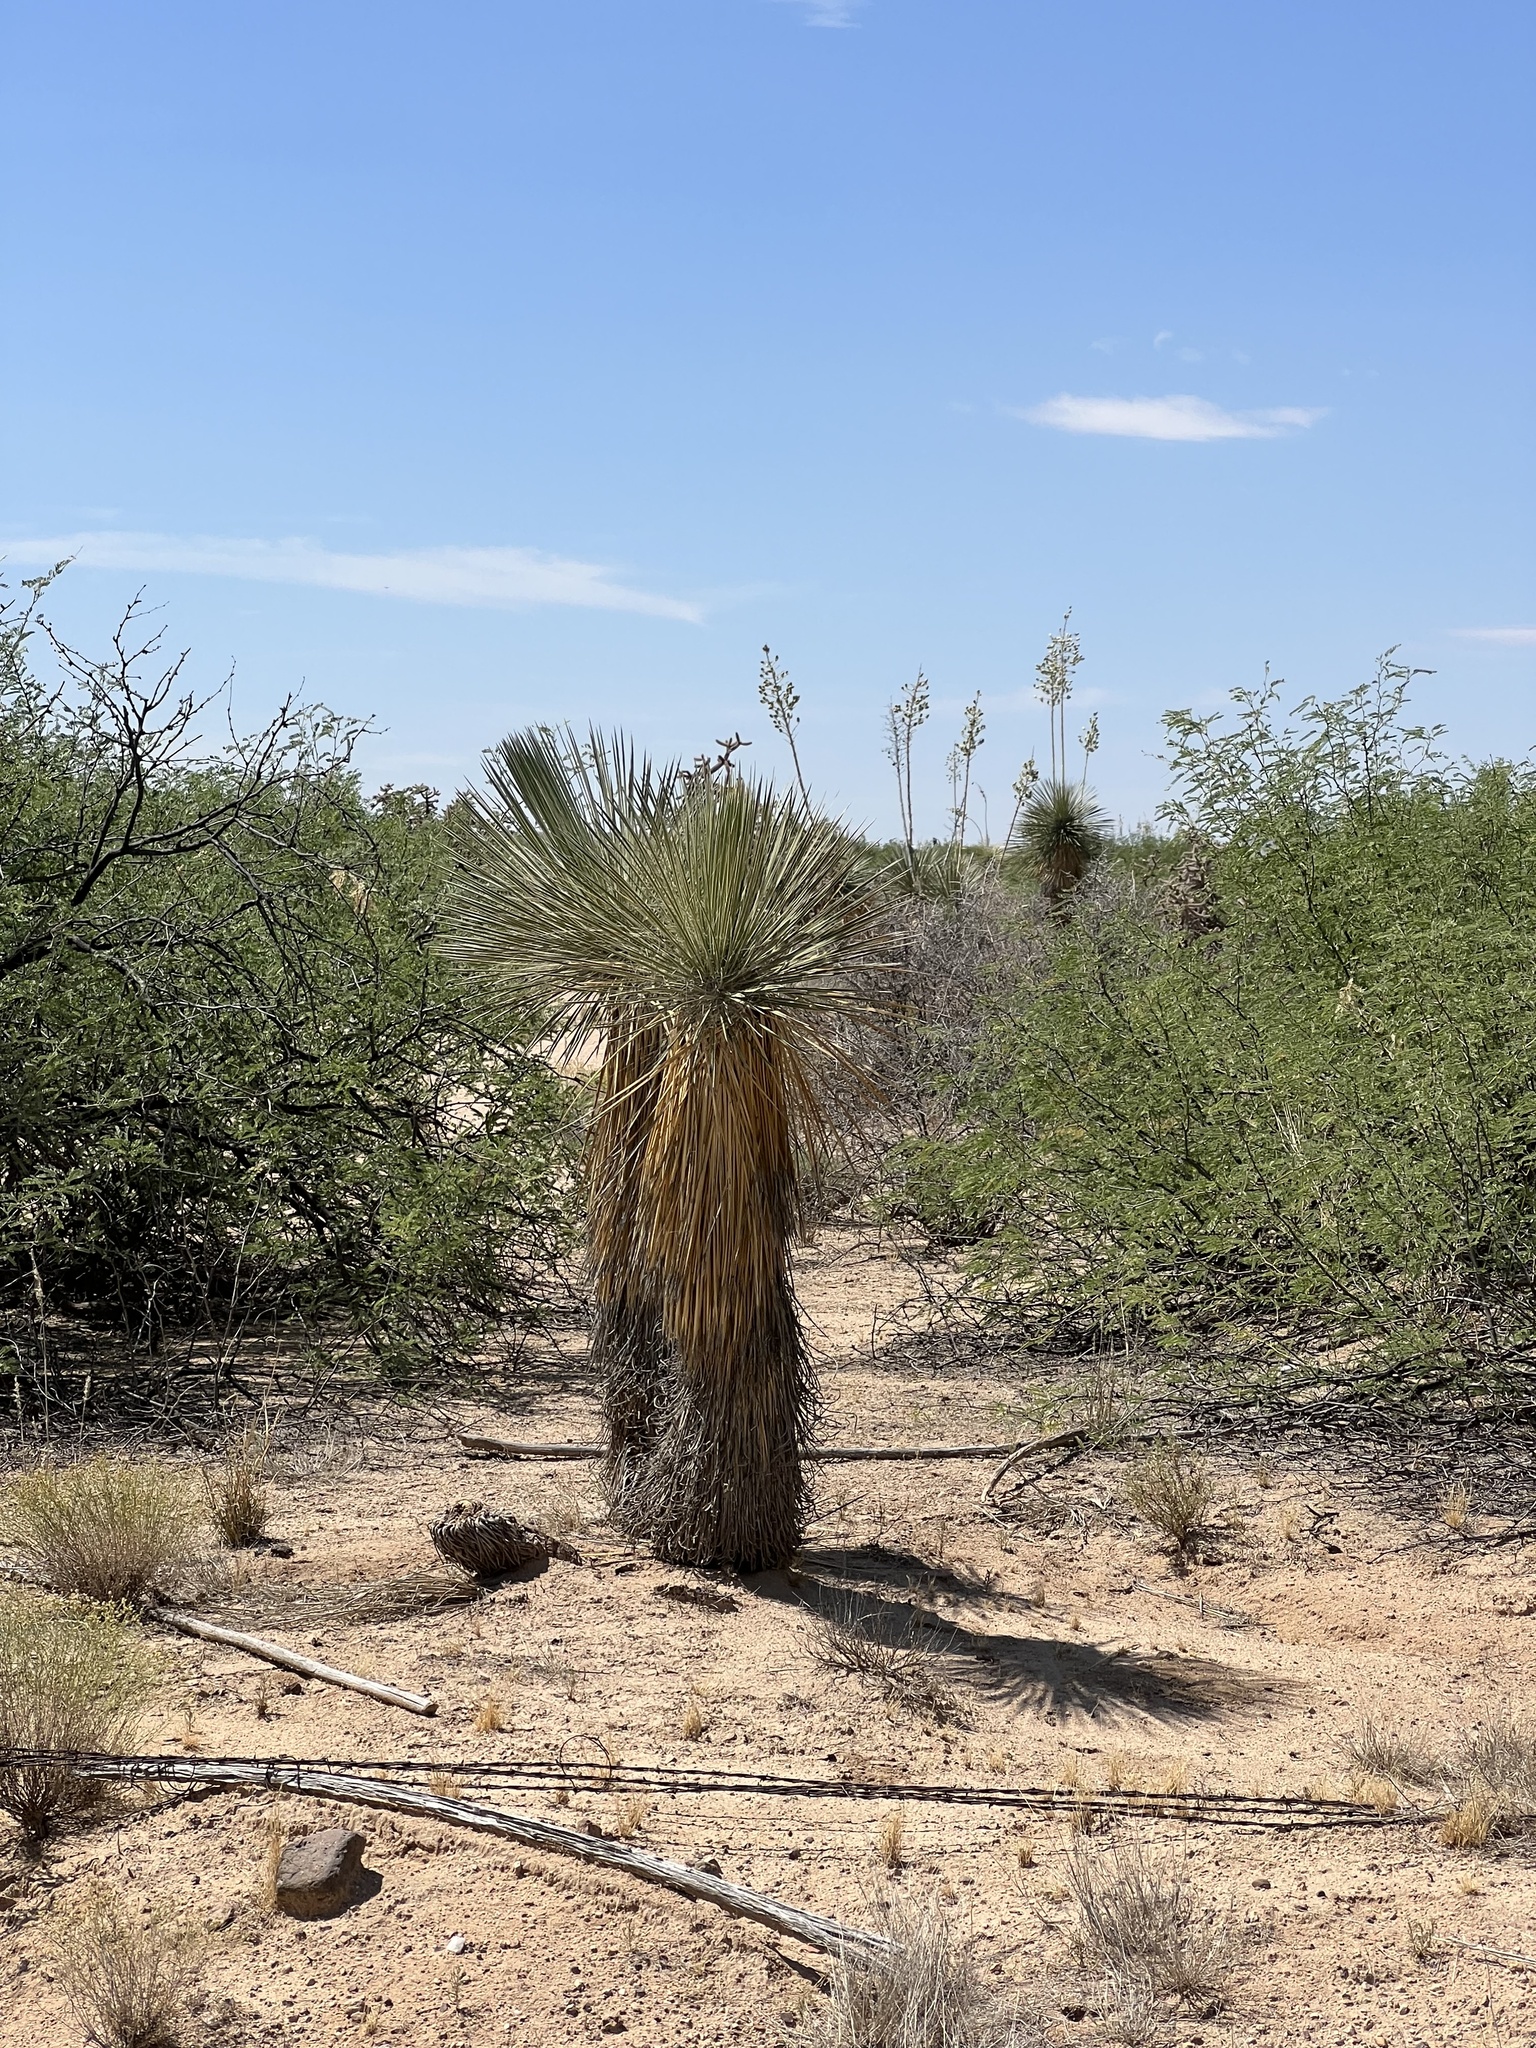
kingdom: Plantae
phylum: Tracheophyta
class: Liliopsida
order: Asparagales
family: Asparagaceae
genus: Yucca
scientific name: Yucca elata
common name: Palmella
